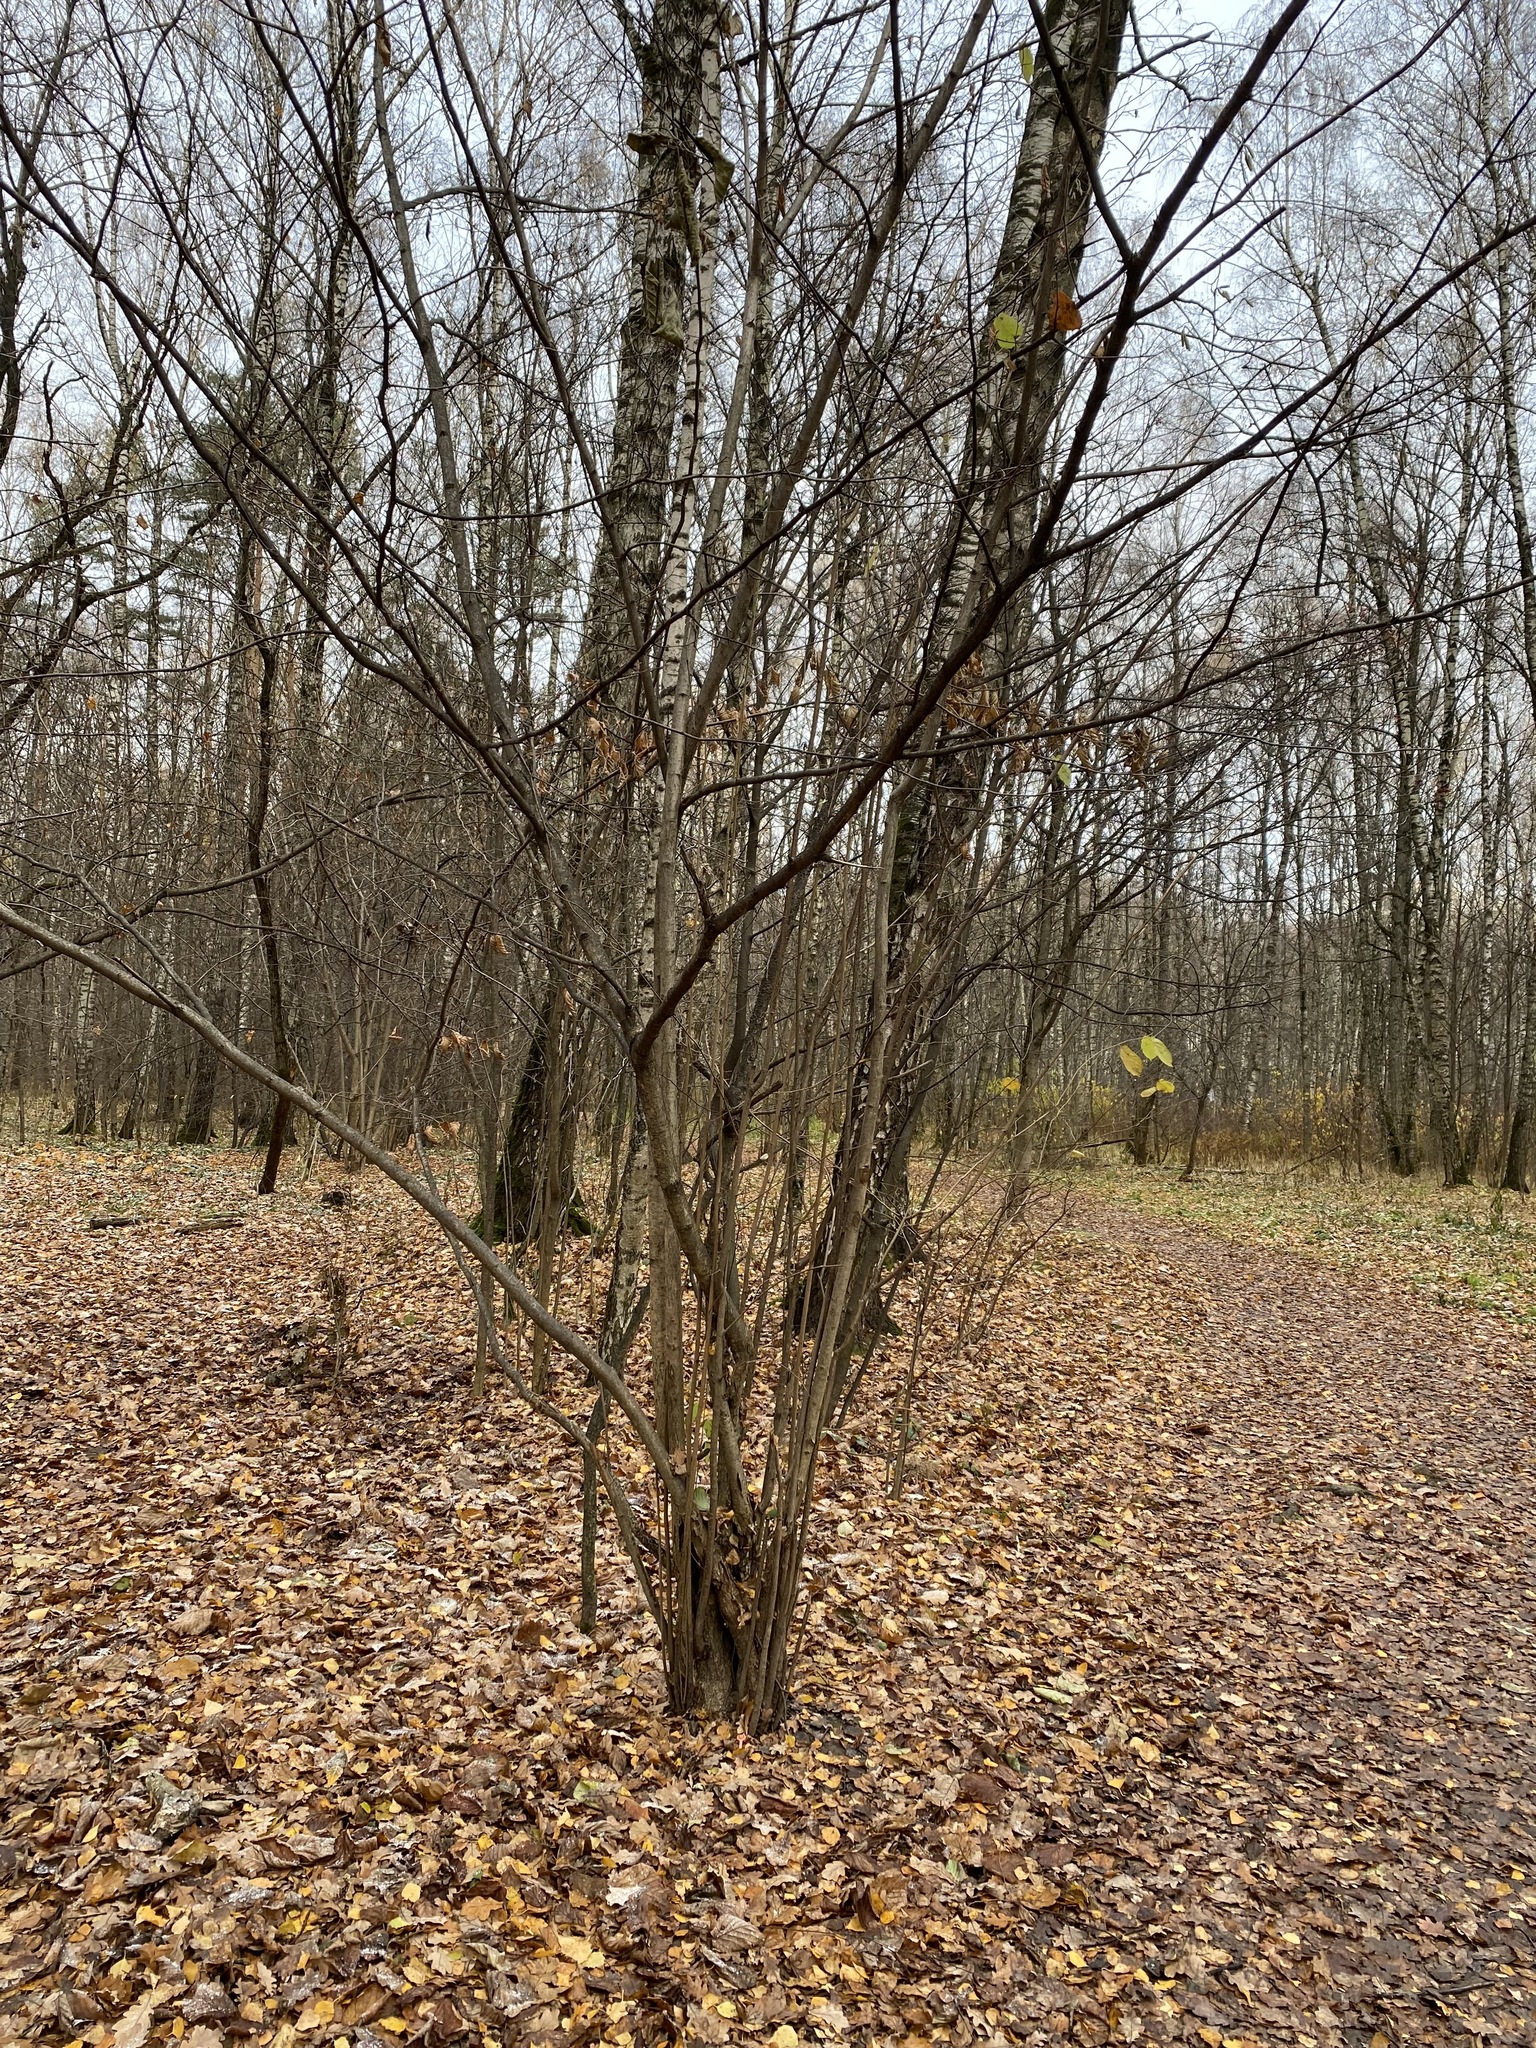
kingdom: Plantae
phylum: Tracheophyta
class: Magnoliopsida
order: Fagales
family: Betulaceae
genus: Corylus
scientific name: Corylus avellana
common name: European hazel
